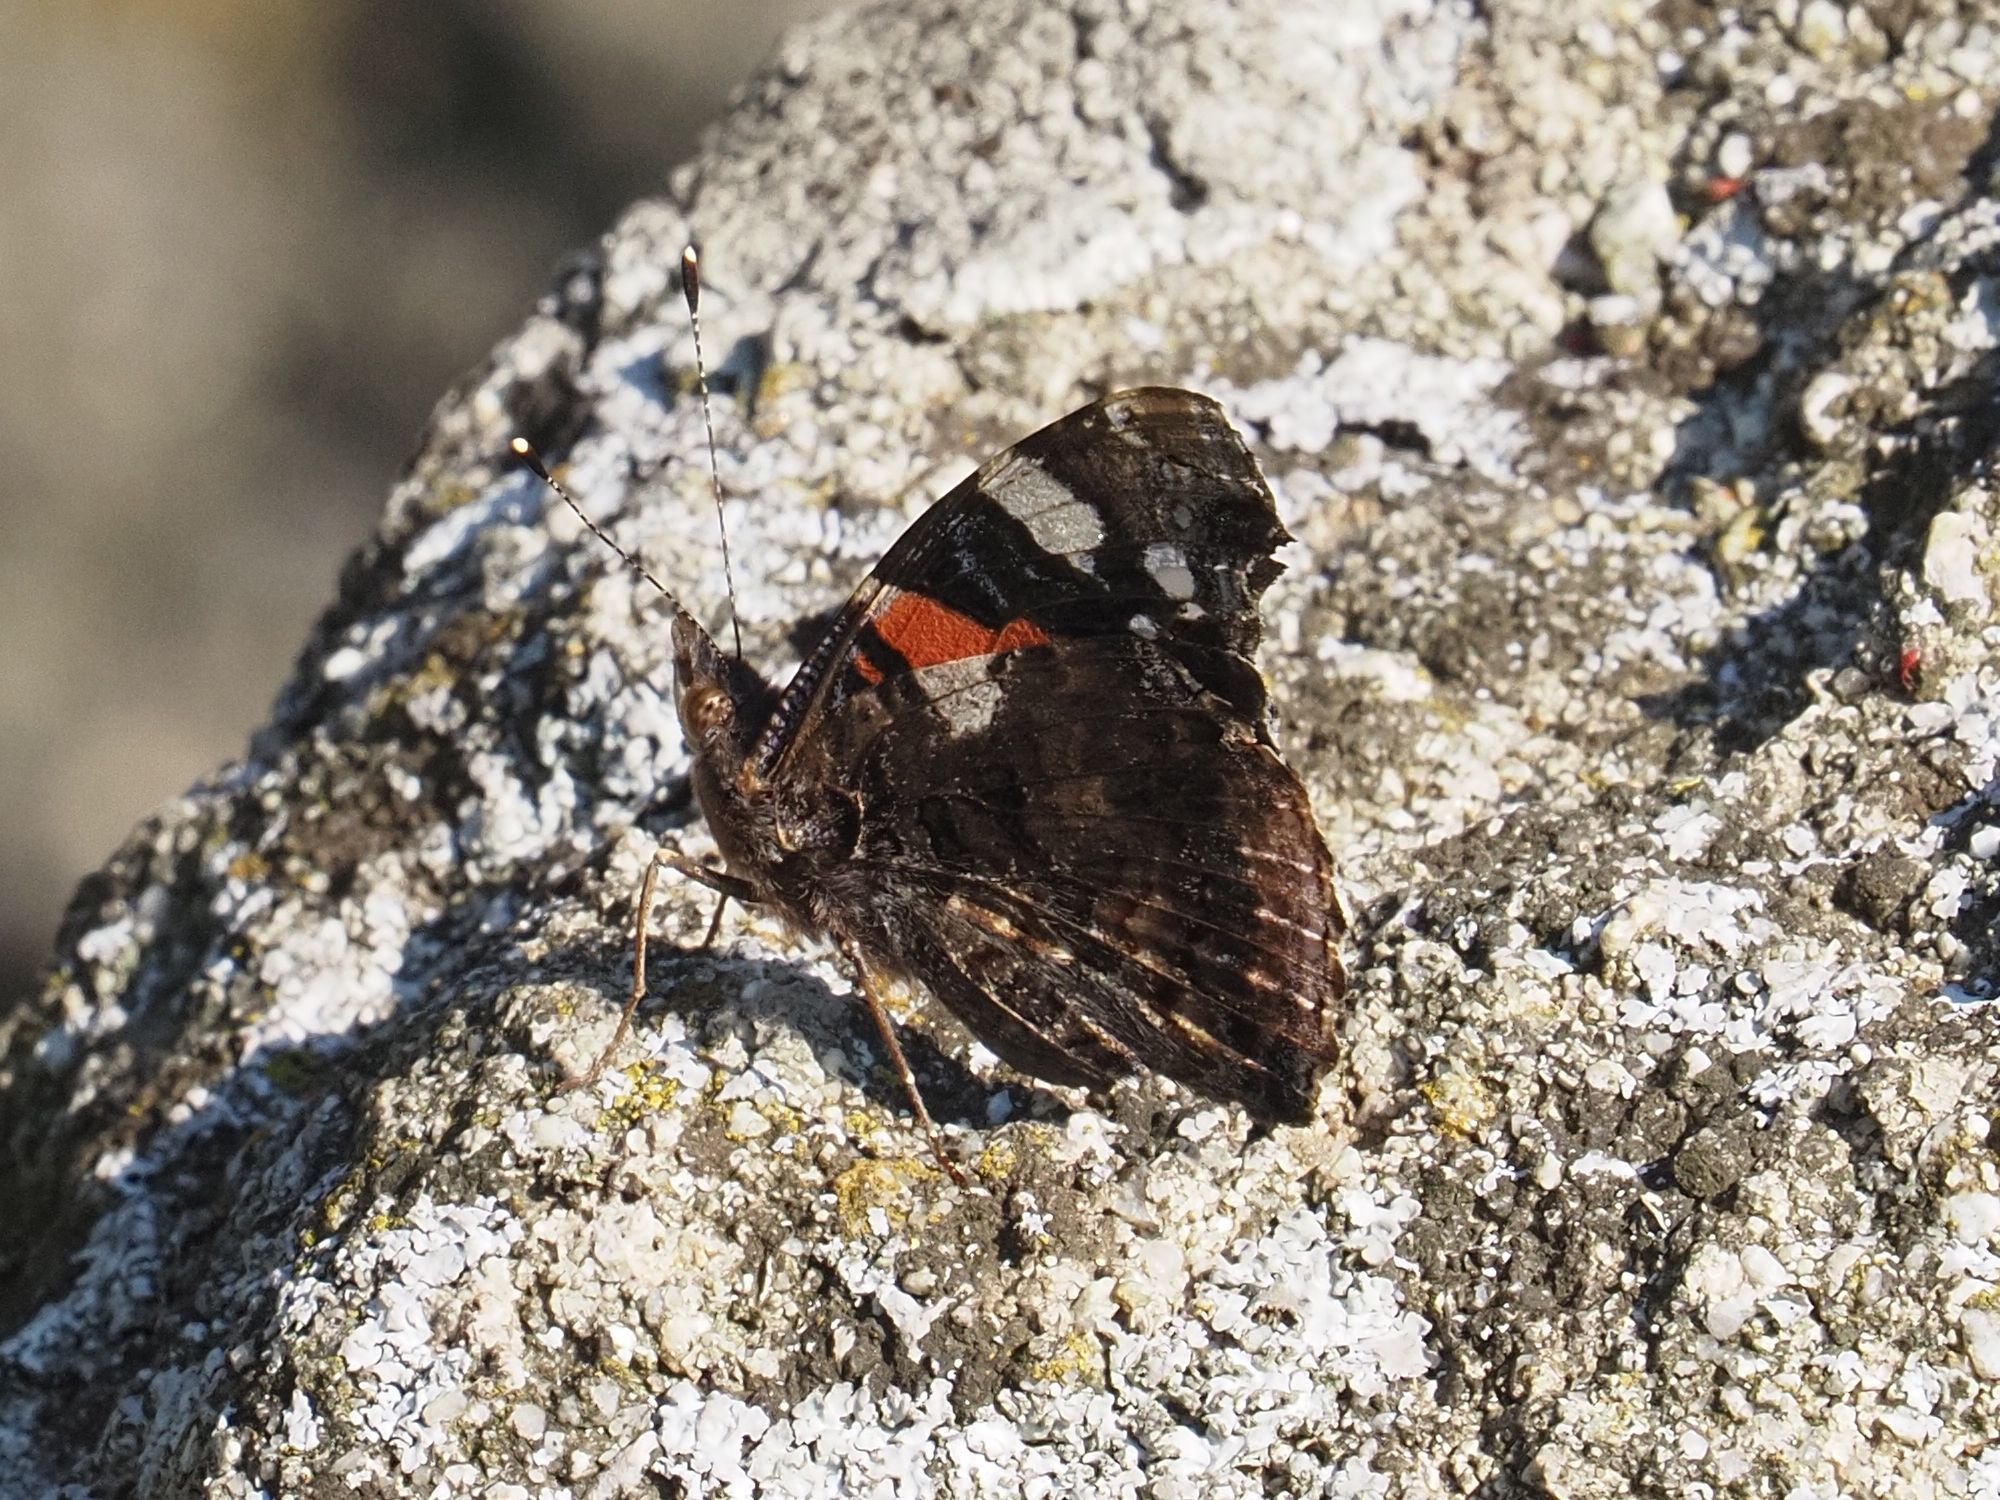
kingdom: Animalia
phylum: Arthropoda
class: Insecta
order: Lepidoptera
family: Nymphalidae
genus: Vanessa
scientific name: Vanessa atalanta
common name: Red admiral
